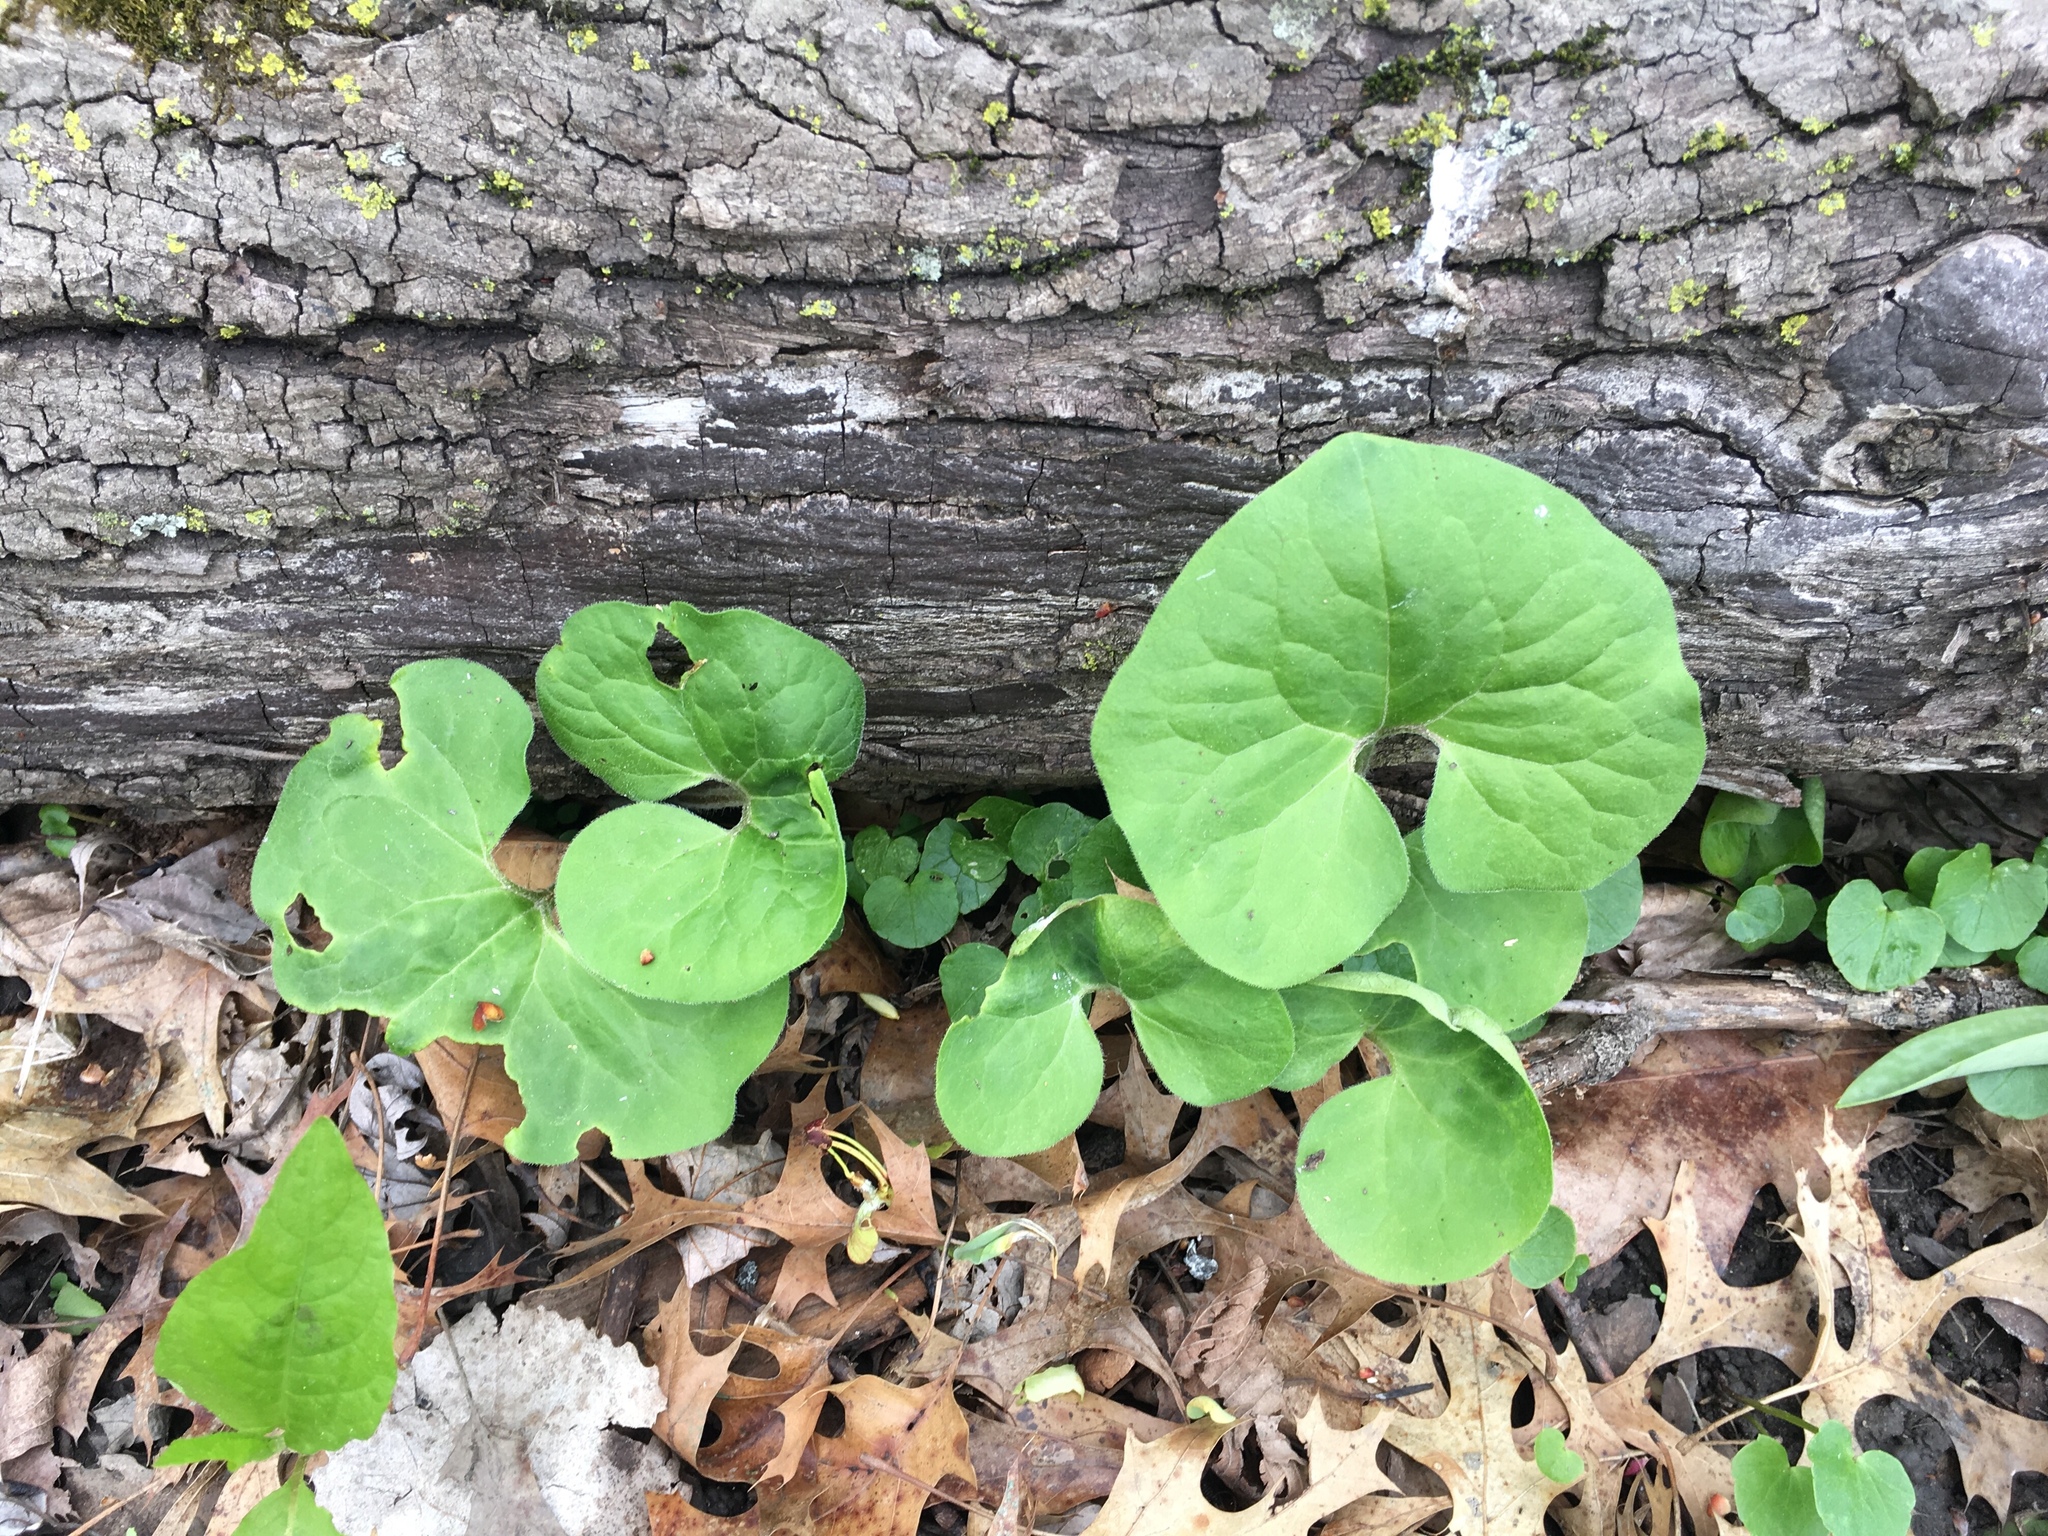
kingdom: Plantae
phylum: Tracheophyta
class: Magnoliopsida
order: Piperales
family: Aristolochiaceae
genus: Asarum
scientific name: Asarum canadense
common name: Wild ginger
